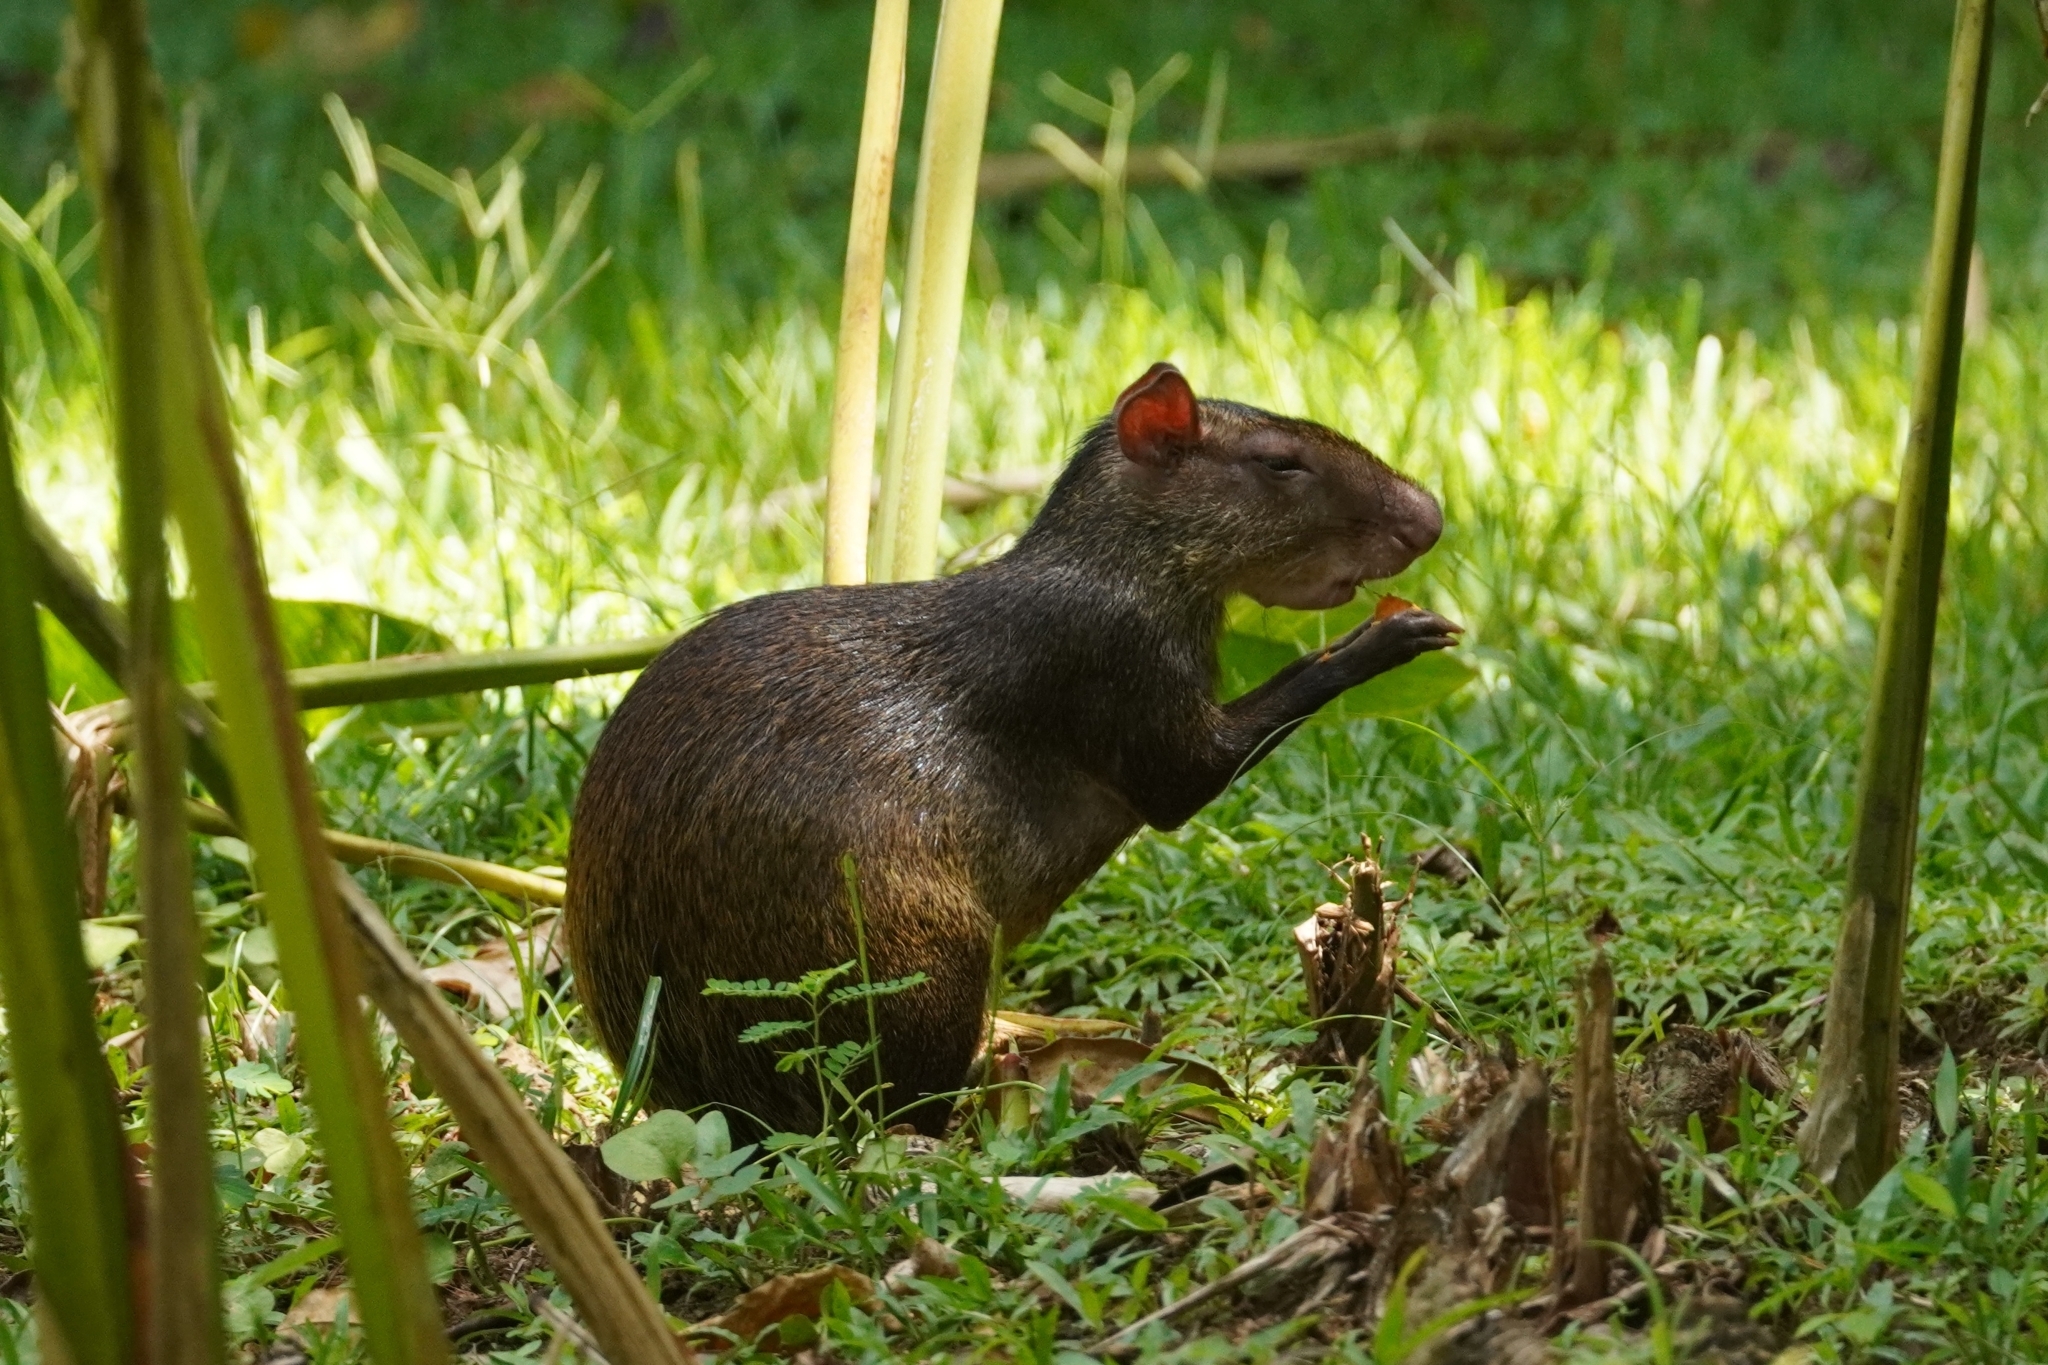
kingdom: Animalia
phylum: Chordata
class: Mammalia
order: Rodentia
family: Dasyproctidae
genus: Dasyprocta
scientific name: Dasyprocta punctata
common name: Central american agouti
